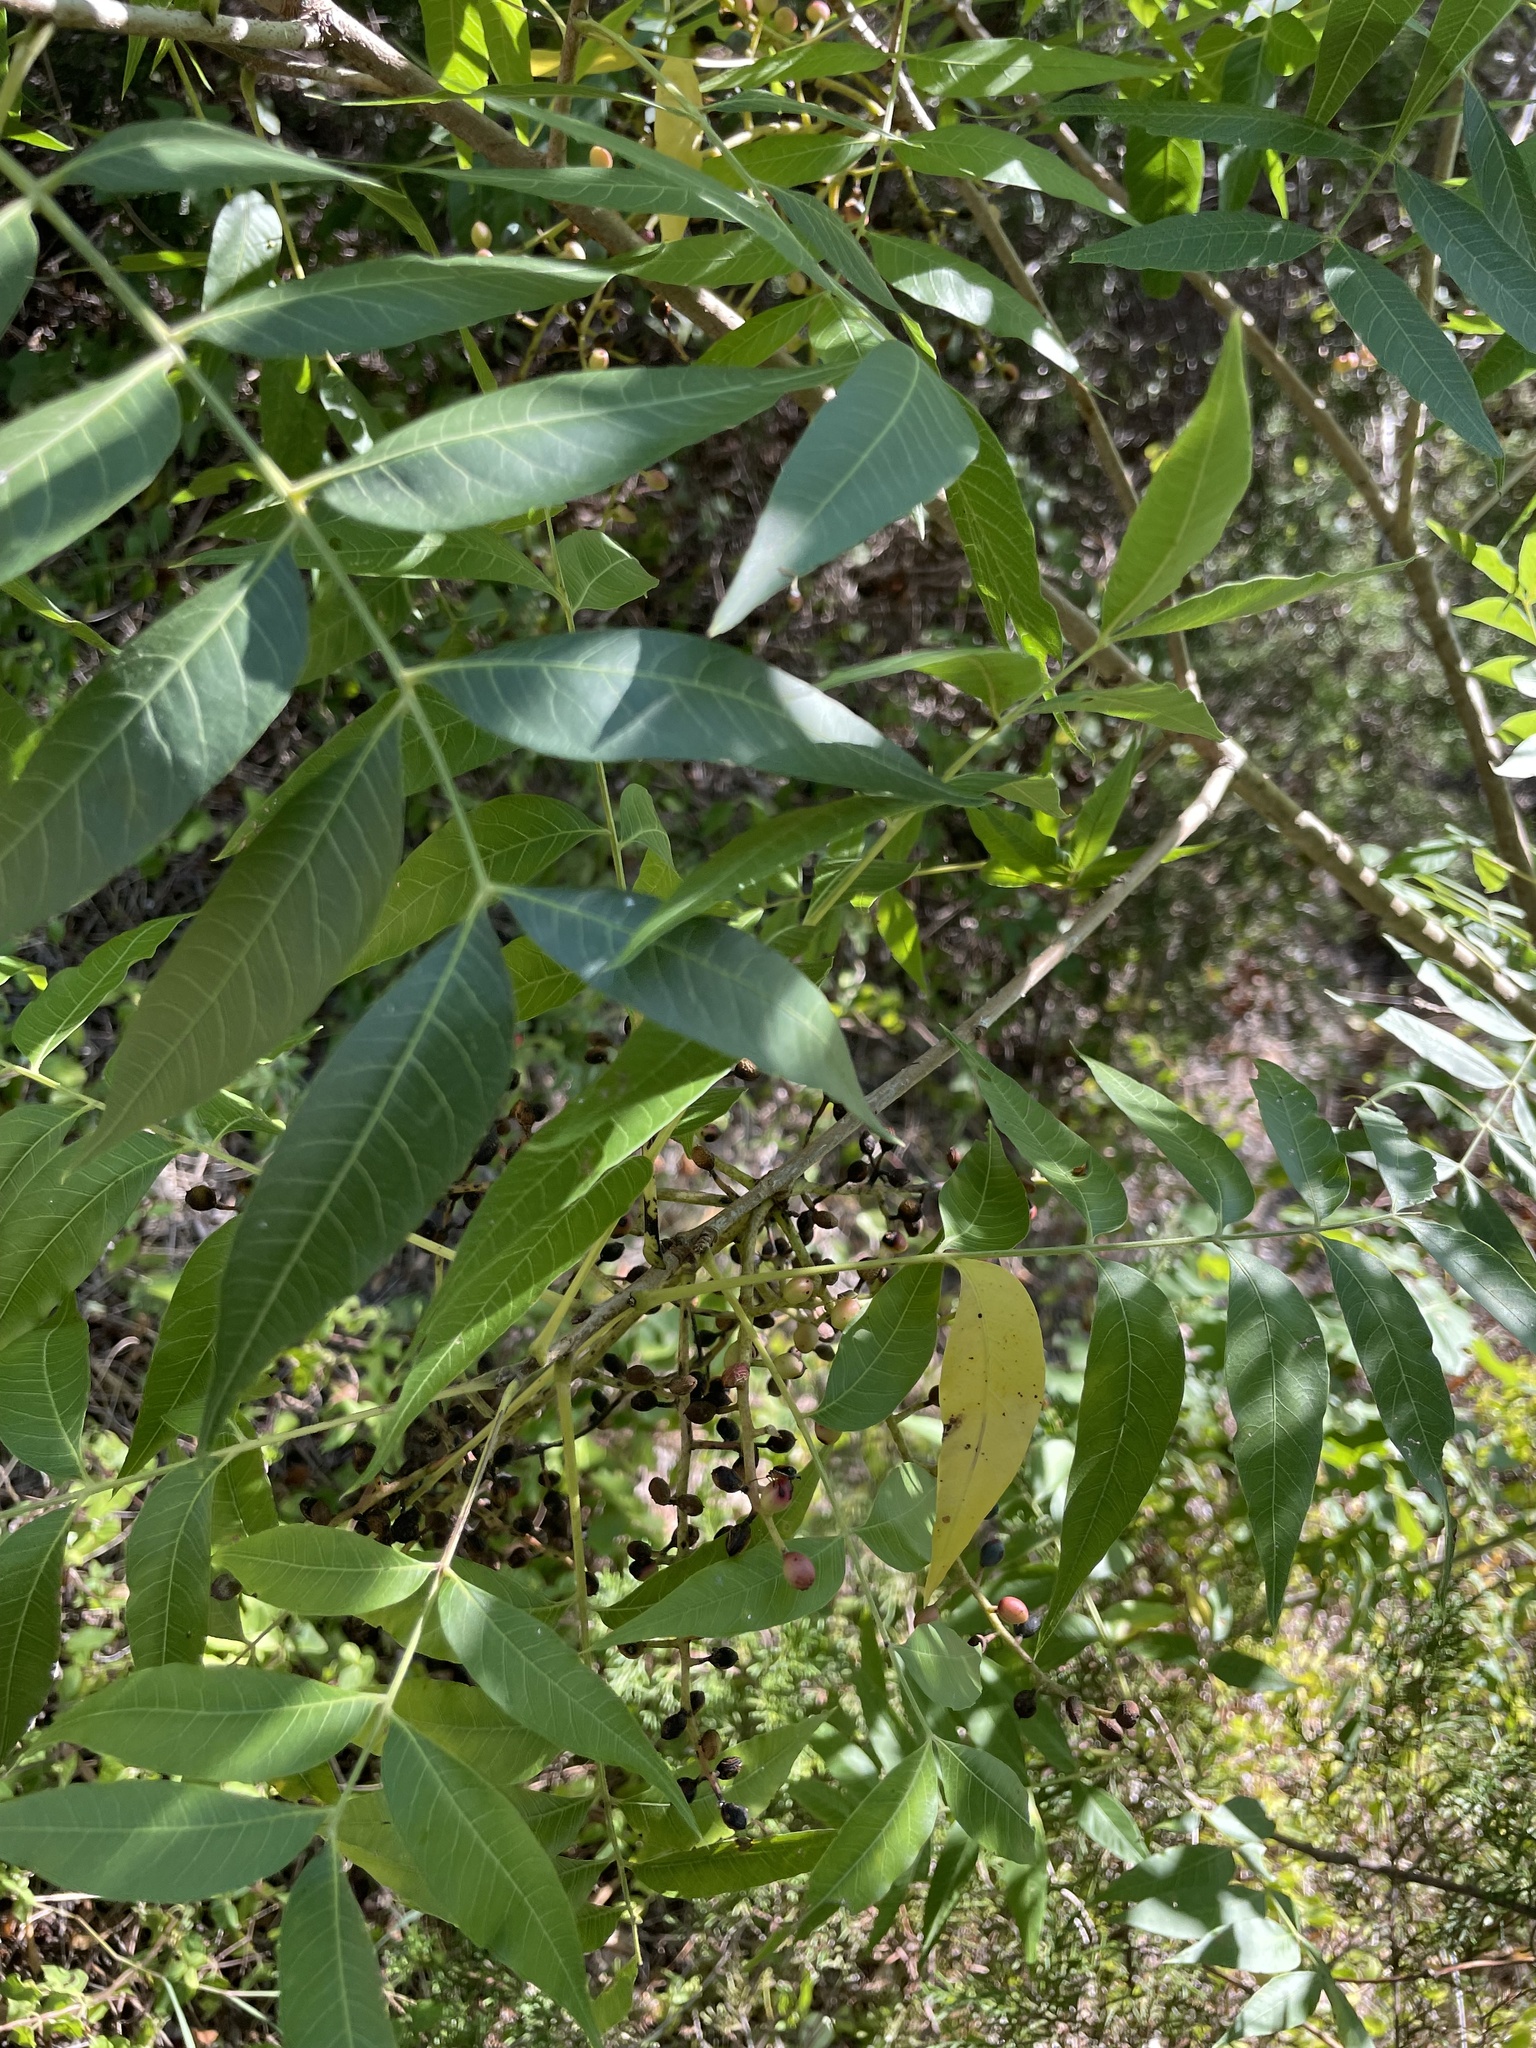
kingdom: Plantae
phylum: Tracheophyta
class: Magnoliopsida
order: Sapindales
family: Anacardiaceae
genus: Pistacia
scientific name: Pistacia chinensis
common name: Chinese pistache
